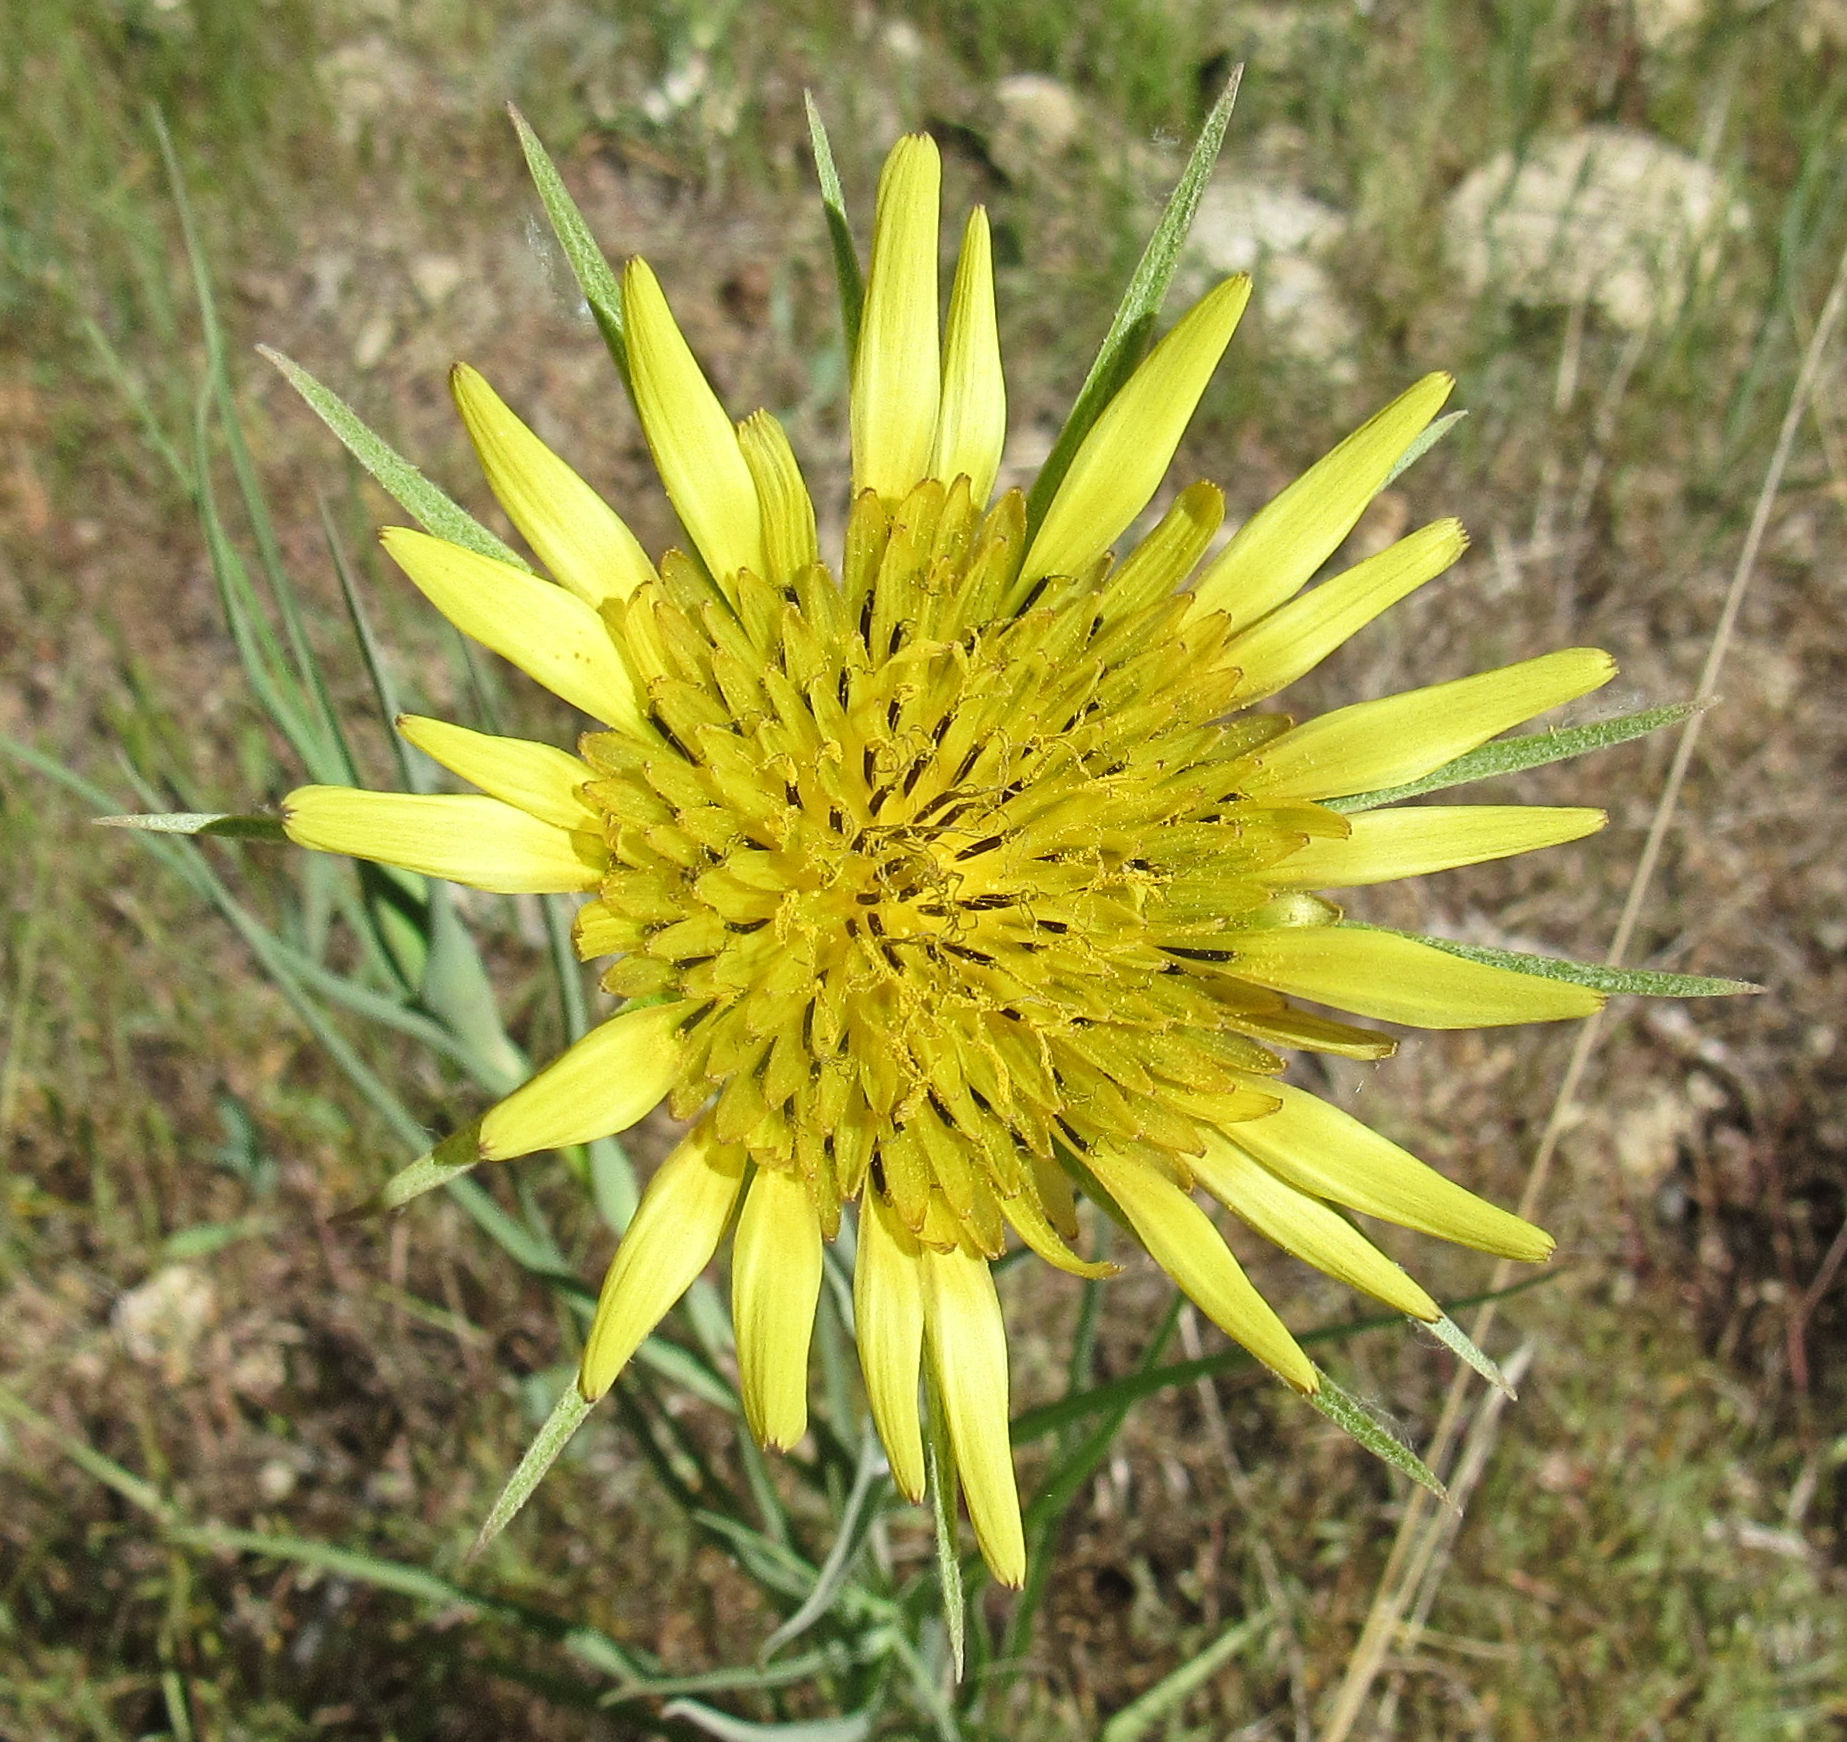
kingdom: Plantae
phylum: Tracheophyta
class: Magnoliopsida
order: Asterales
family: Asteraceae
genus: Tragopogon
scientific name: Tragopogon dubius
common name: Yellow salsify
